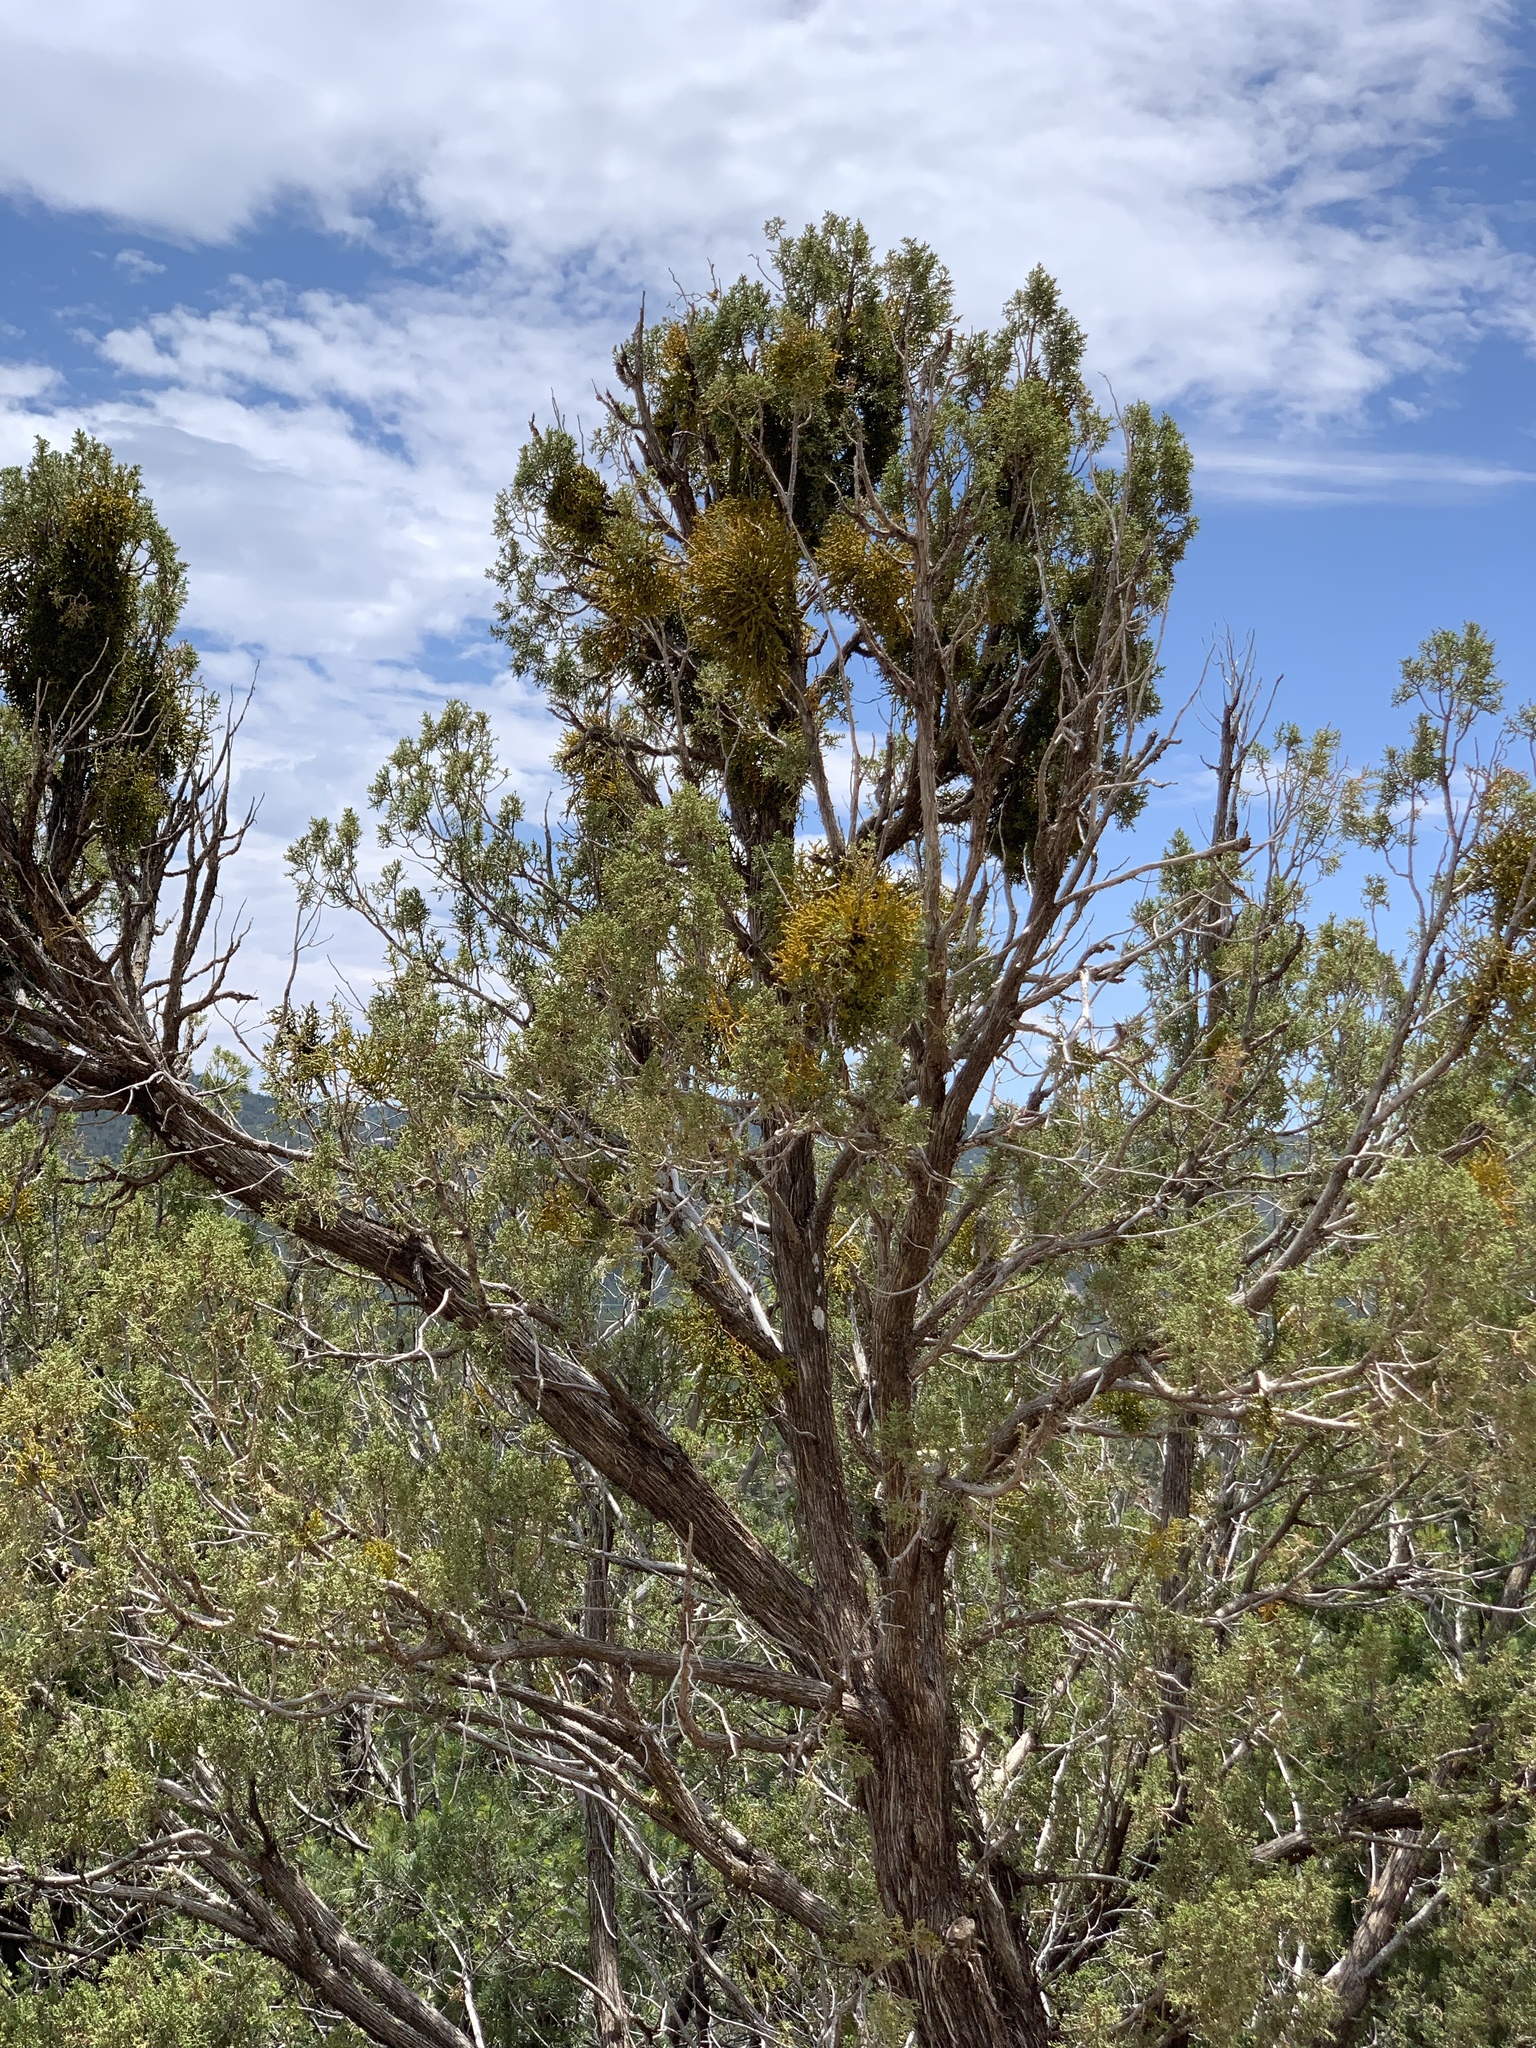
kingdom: Plantae
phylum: Tracheophyta
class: Pinopsida
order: Pinales
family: Cupressaceae
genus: Juniperus
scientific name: Juniperus monosperma
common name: One-seed juniper
